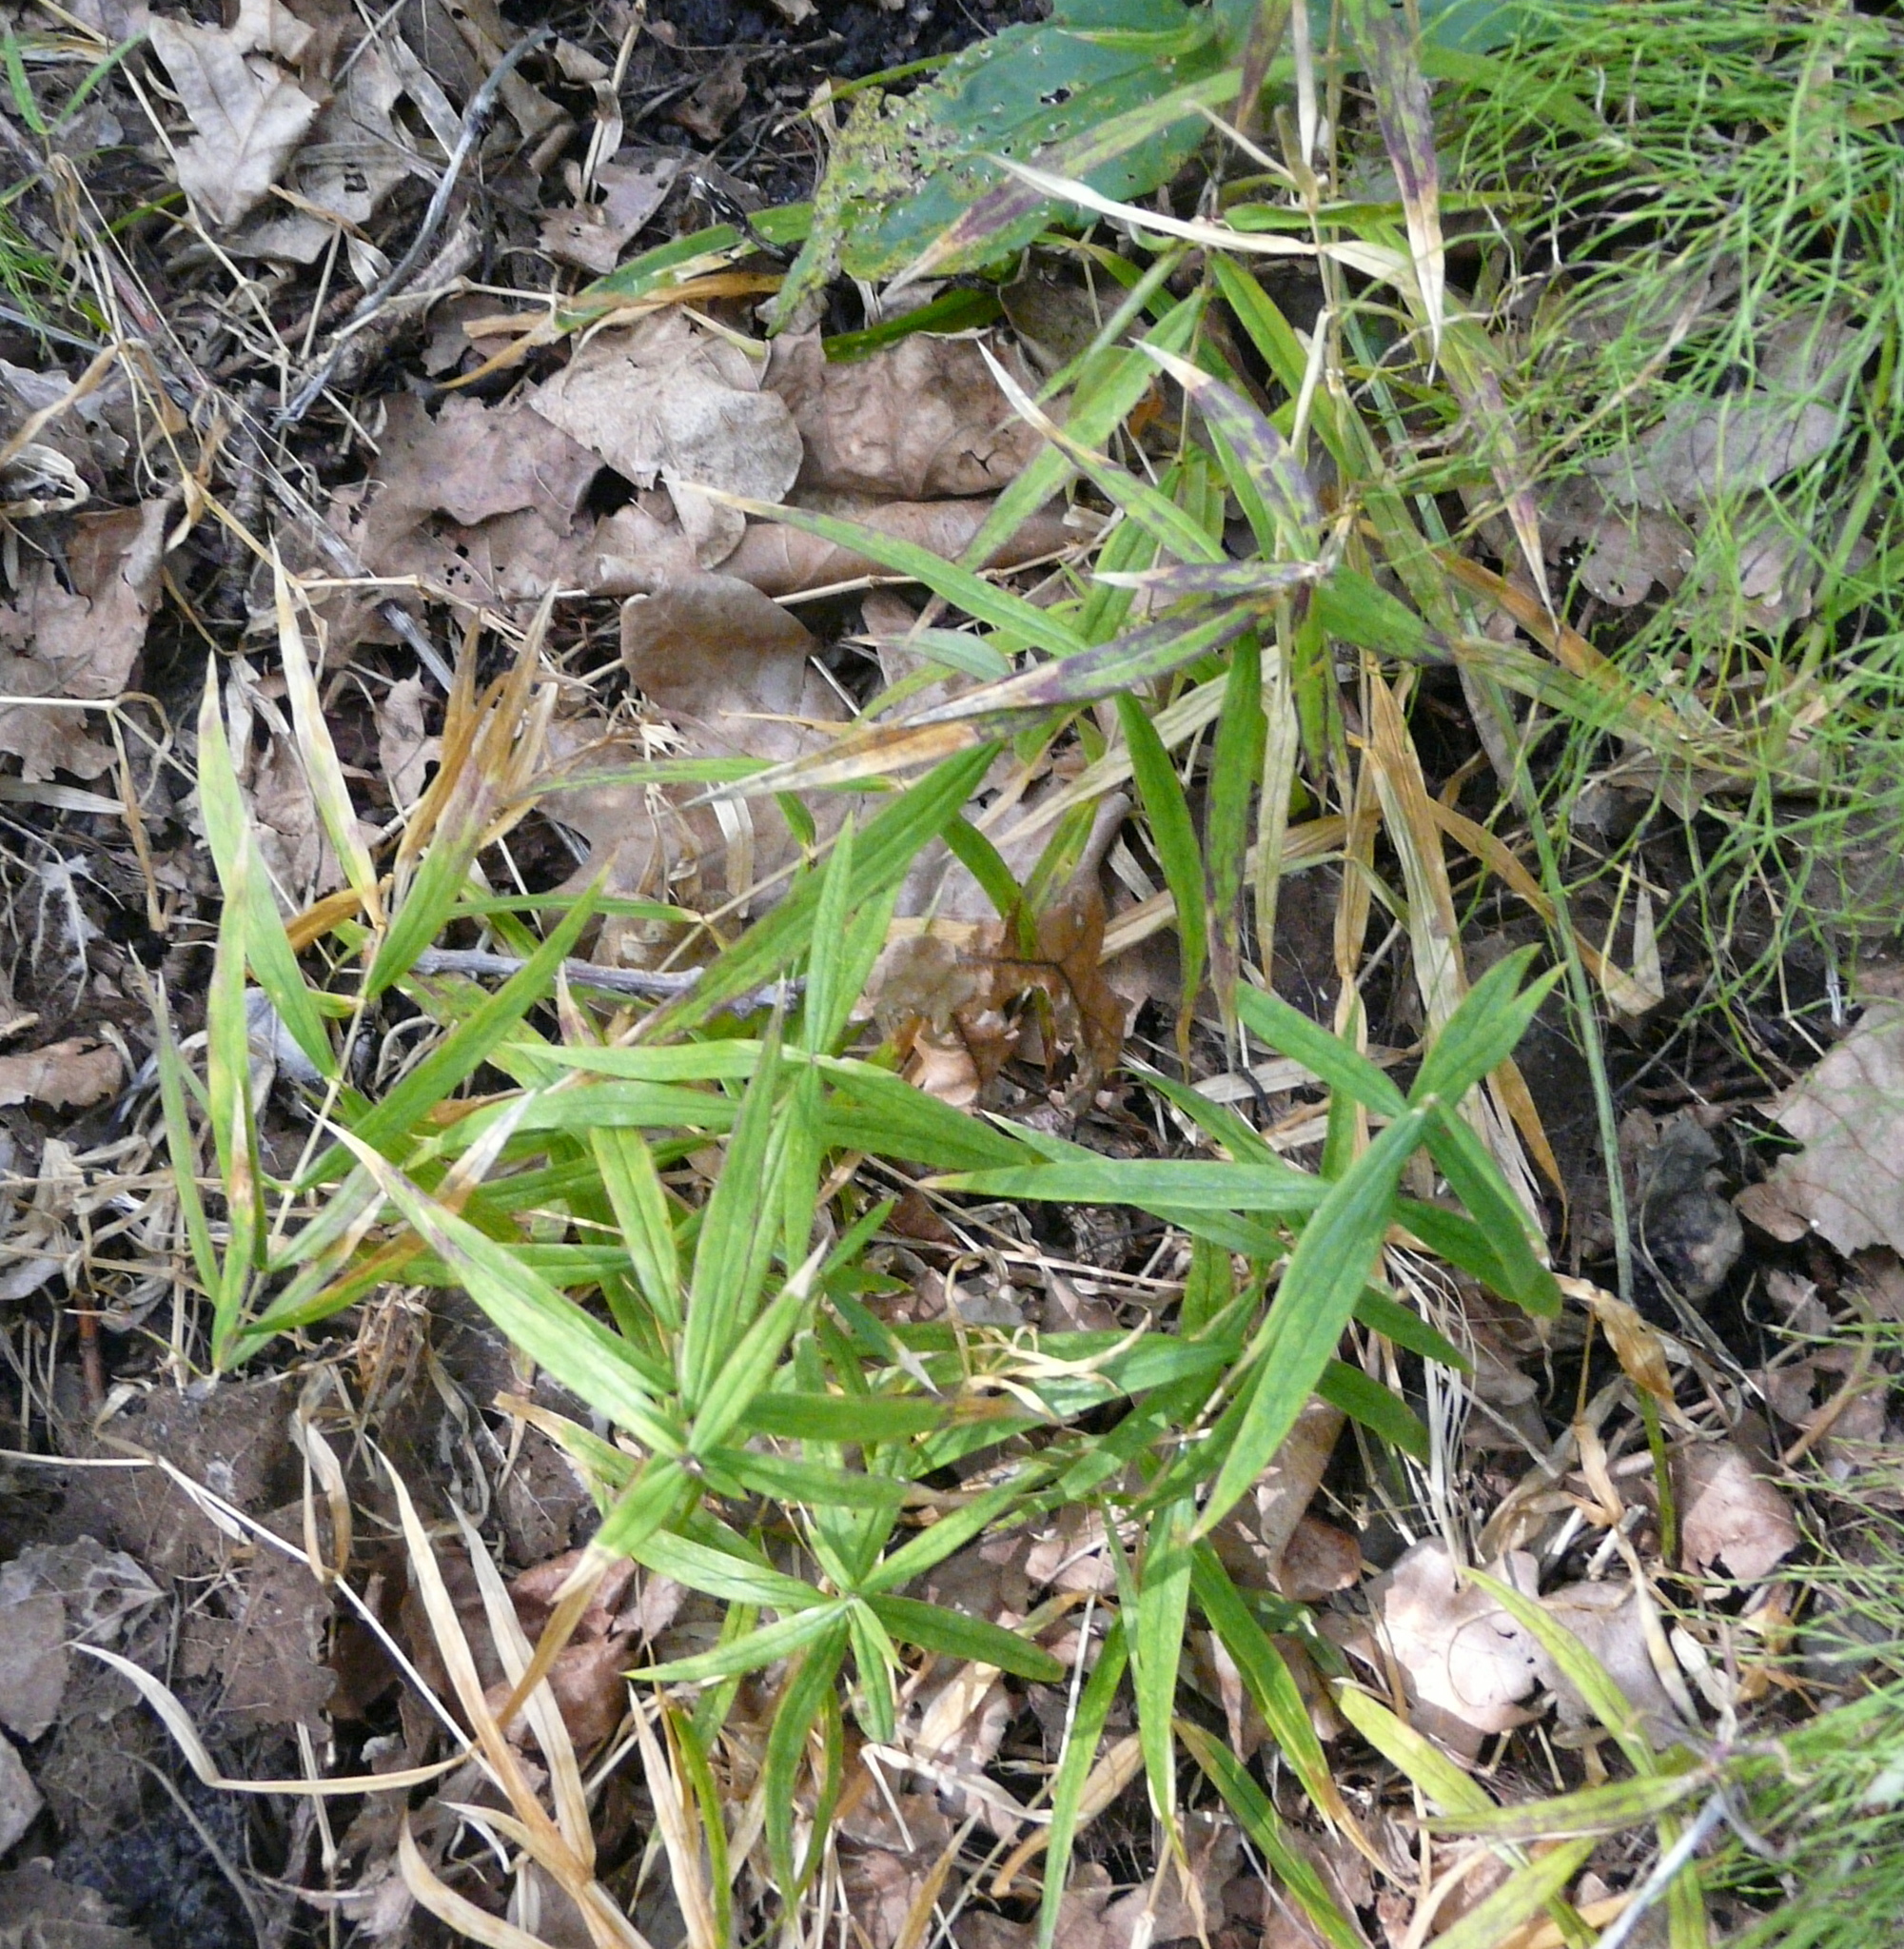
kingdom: Plantae
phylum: Tracheophyta
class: Magnoliopsida
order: Caryophyllales
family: Caryophyllaceae
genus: Rabelera
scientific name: Rabelera holostea
